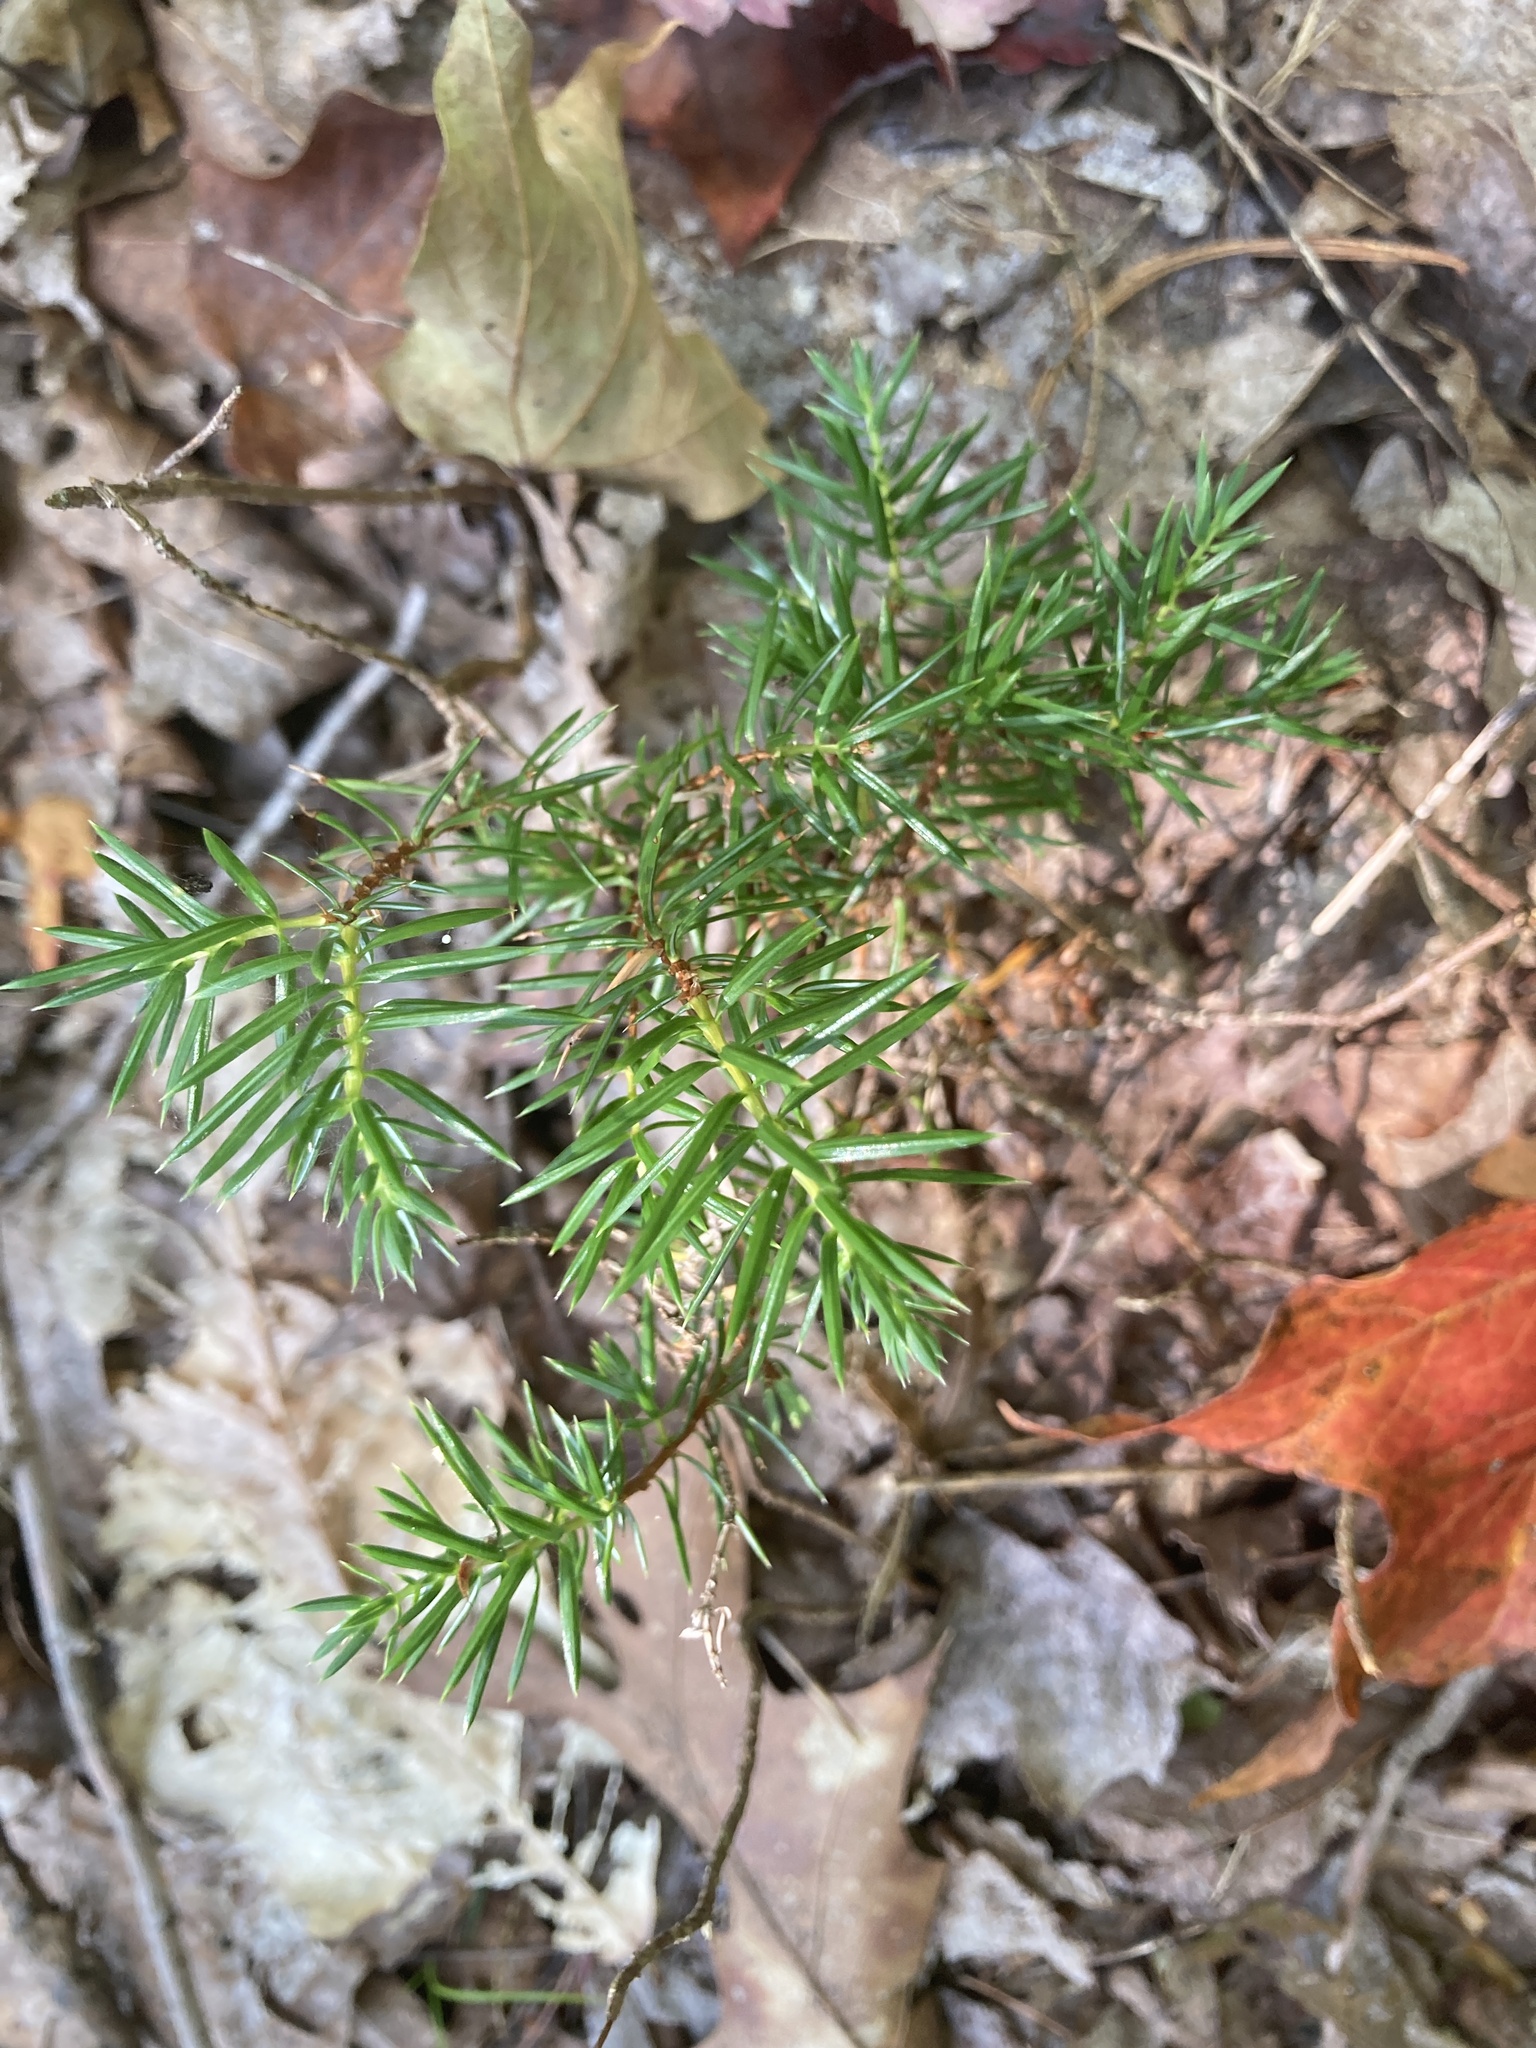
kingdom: Plantae
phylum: Tracheophyta
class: Pinopsida
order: Pinales
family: Cupressaceae
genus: Juniperus
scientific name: Juniperus communis
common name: Common juniper
